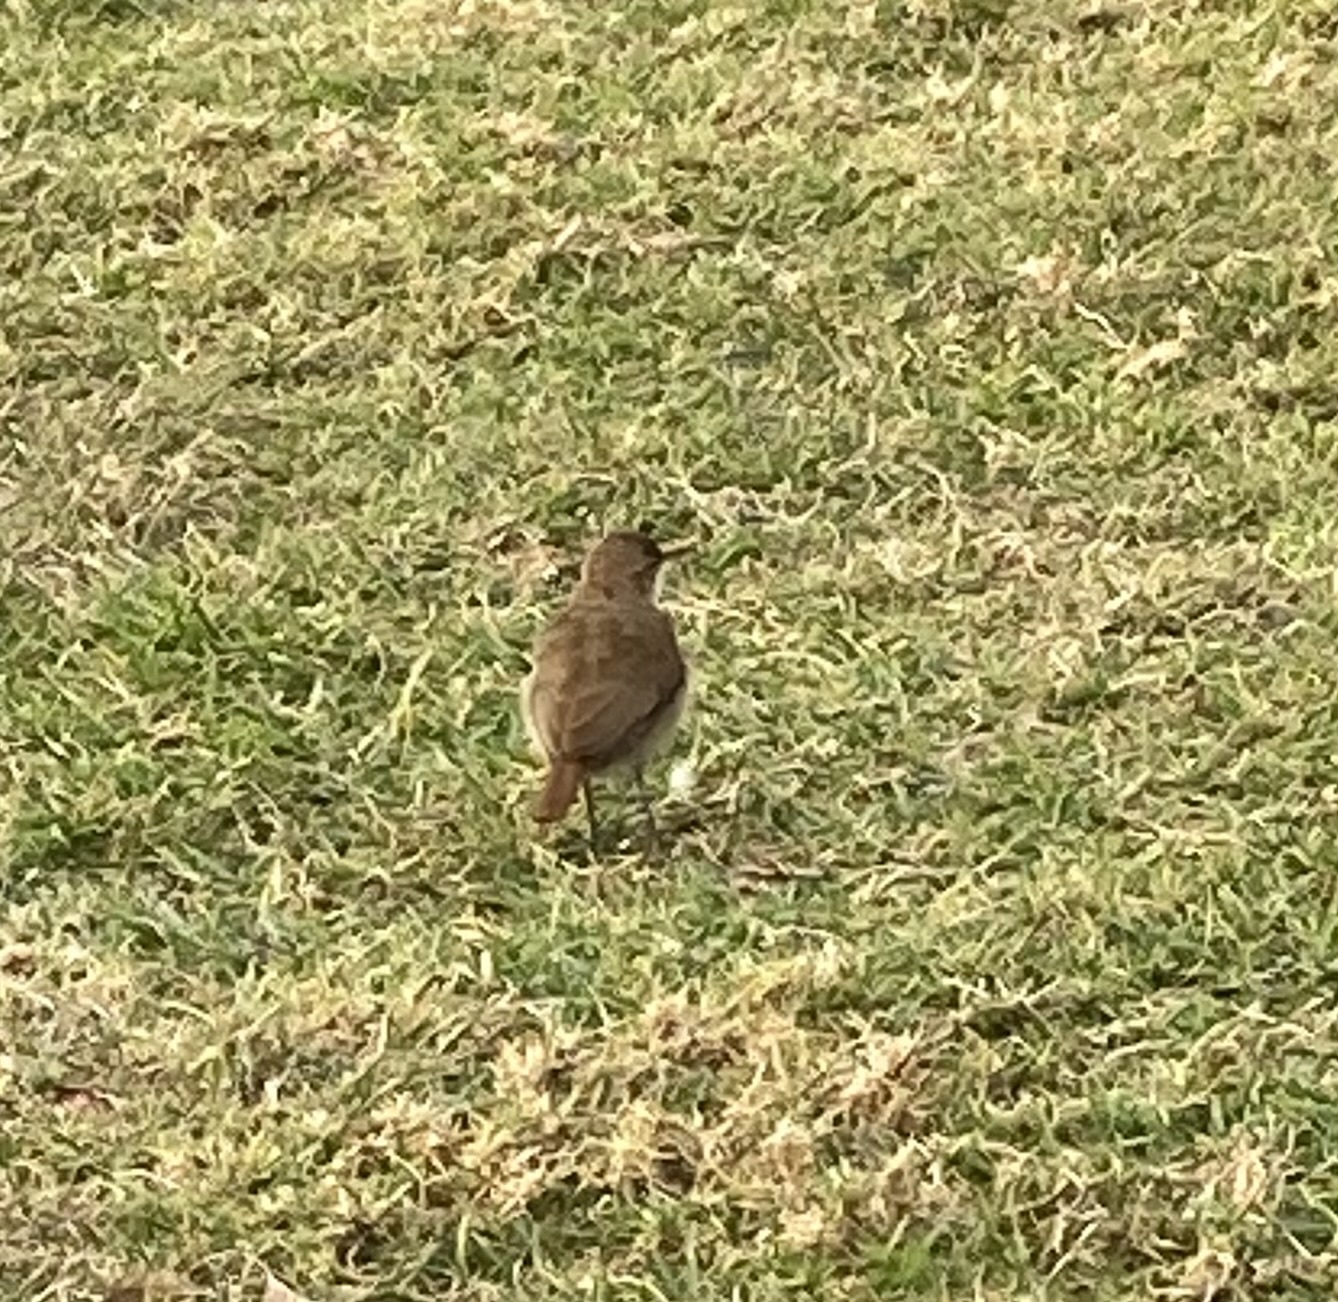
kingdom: Animalia
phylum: Chordata
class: Aves
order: Passeriformes
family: Furnariidae
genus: Furnarius
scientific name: Furnarius rufus
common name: Rufous hornero
